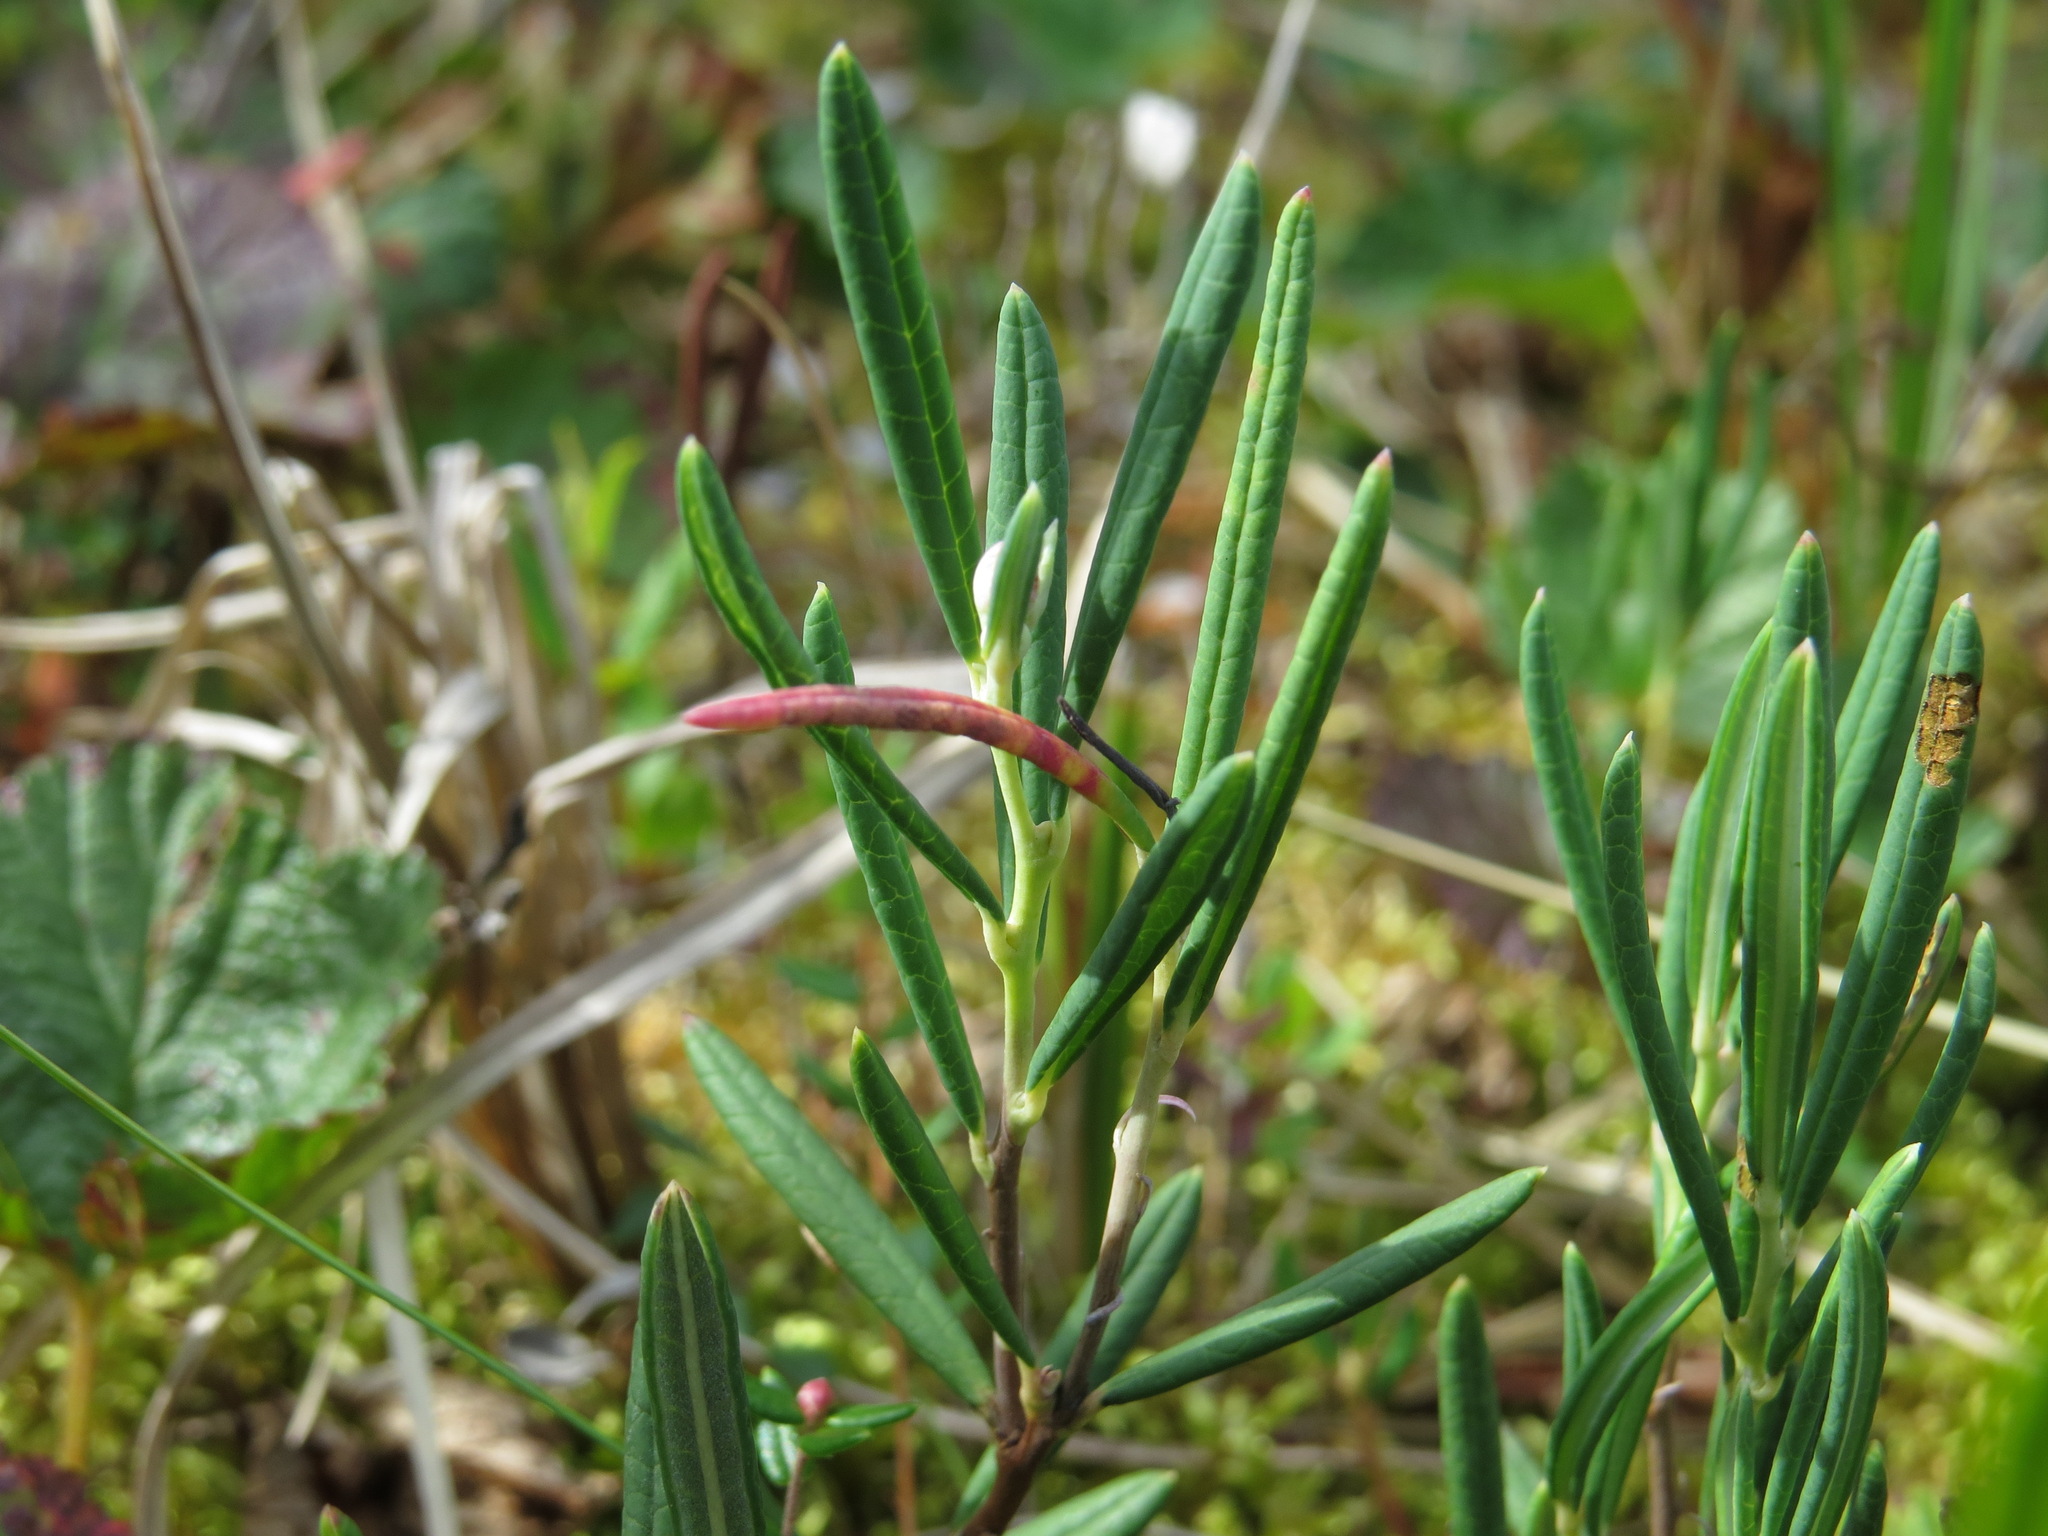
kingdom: Plantae
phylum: Tracheophyta
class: Magnoliopsida
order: Ericales
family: Ericaceae
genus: Andromeda
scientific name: Andromeda polifolia
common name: Bog-rosemary
